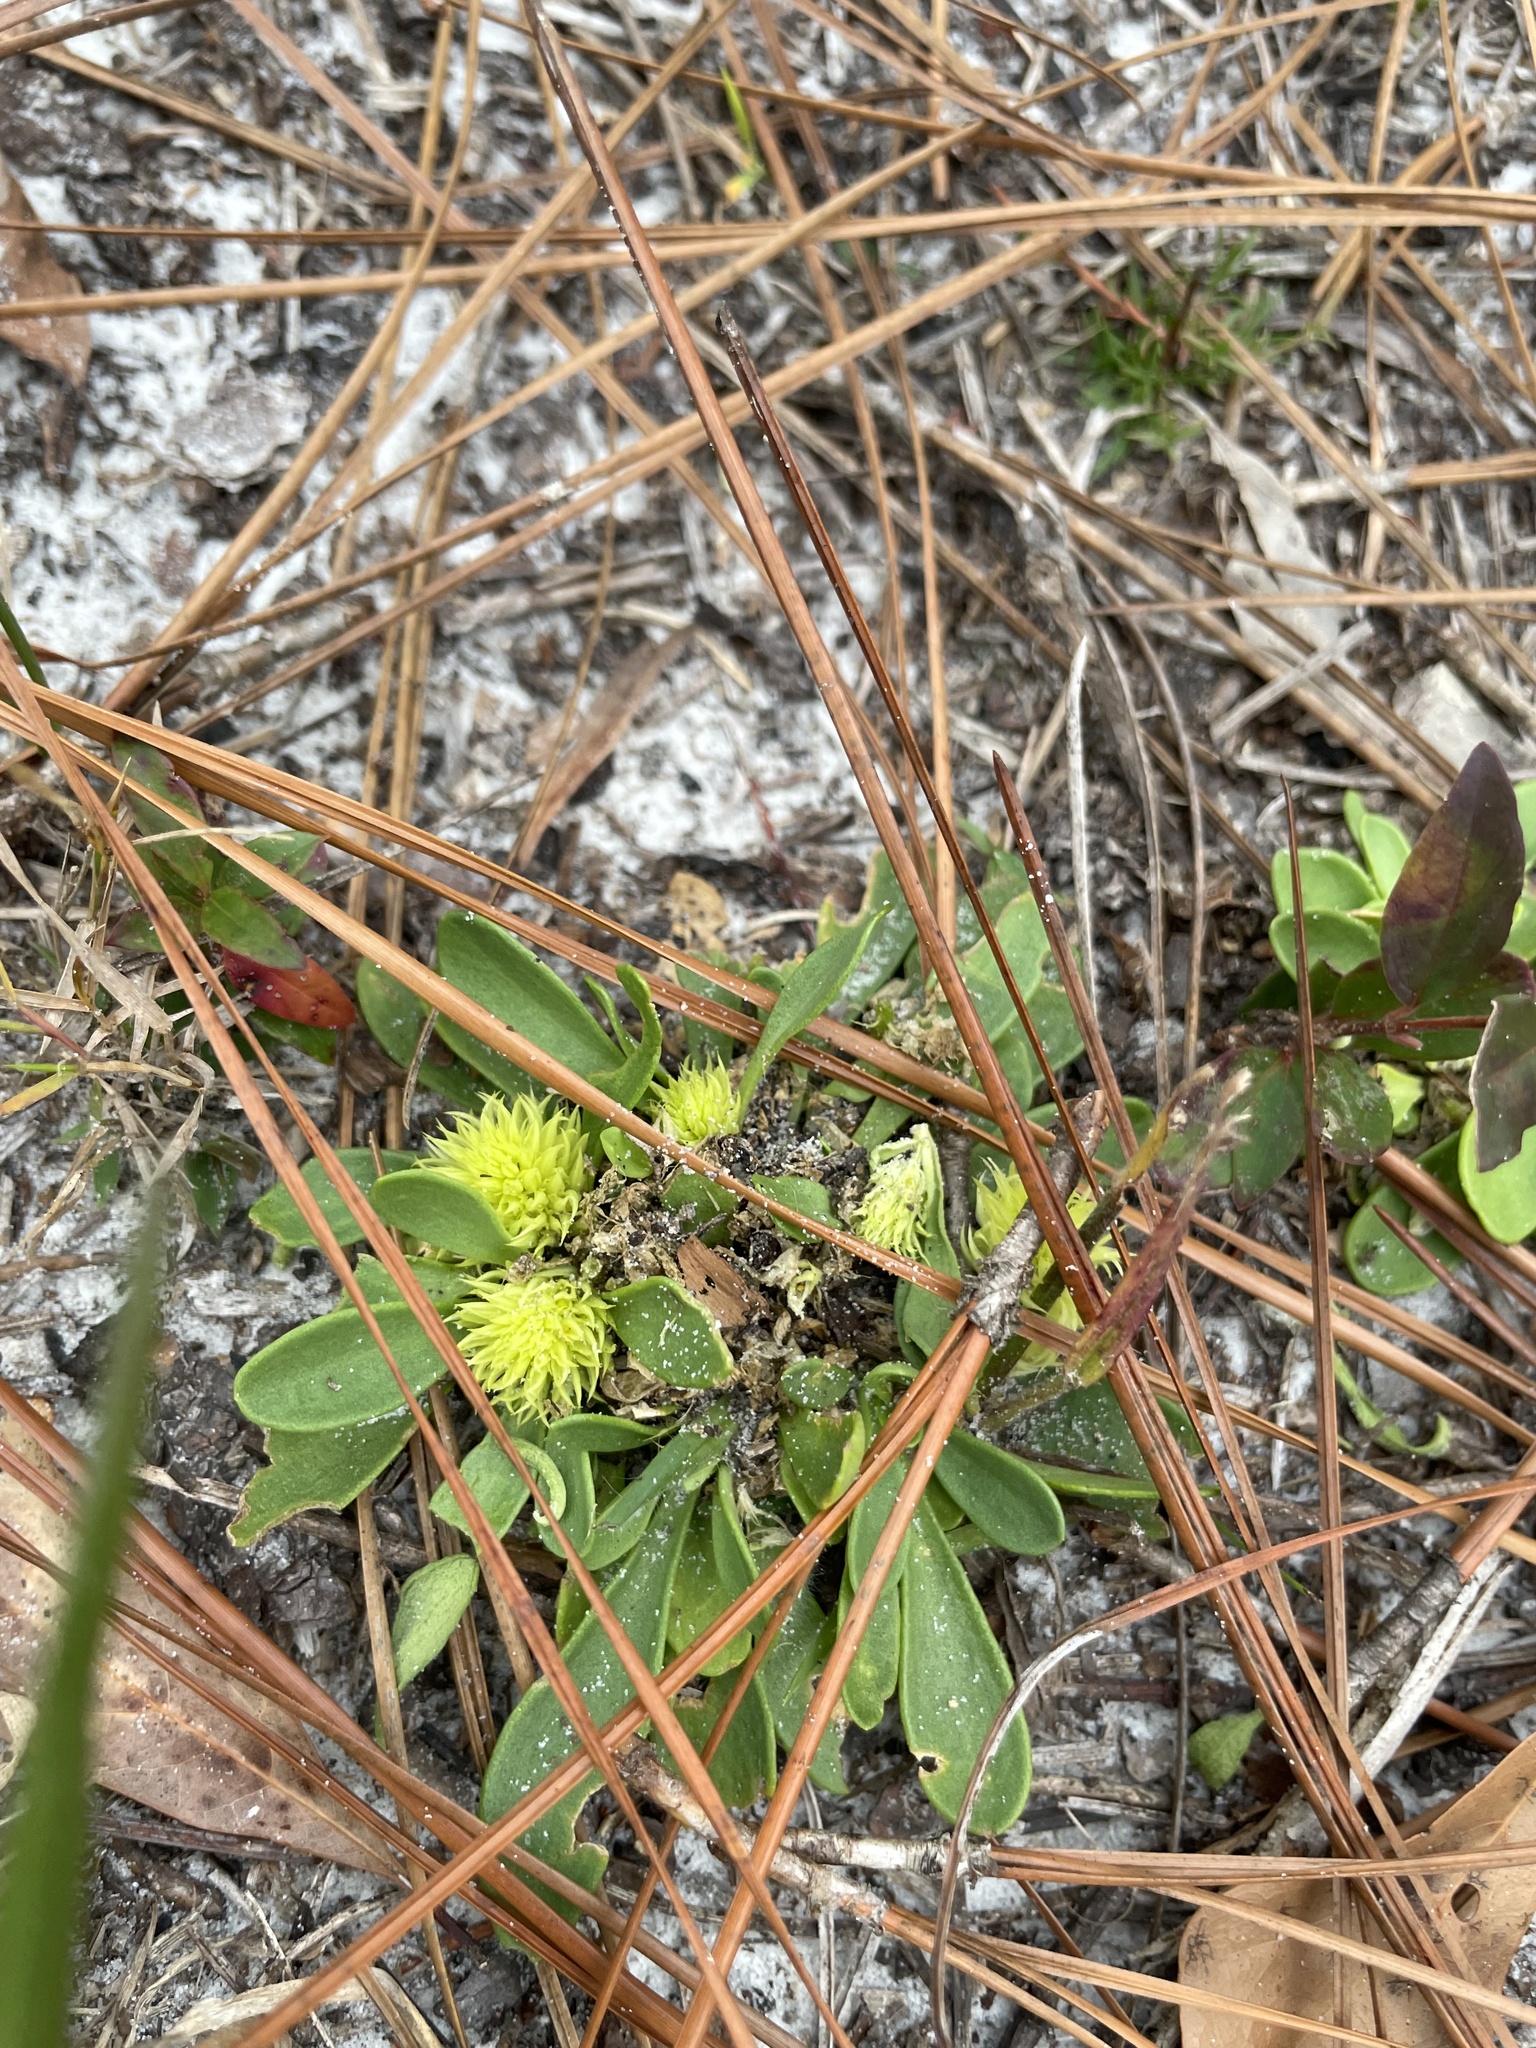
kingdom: Plantae
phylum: Tracheophyta
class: Magnoliopsida
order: Fabales
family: Polygalaceae
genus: Polygala
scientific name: Polygala nana
